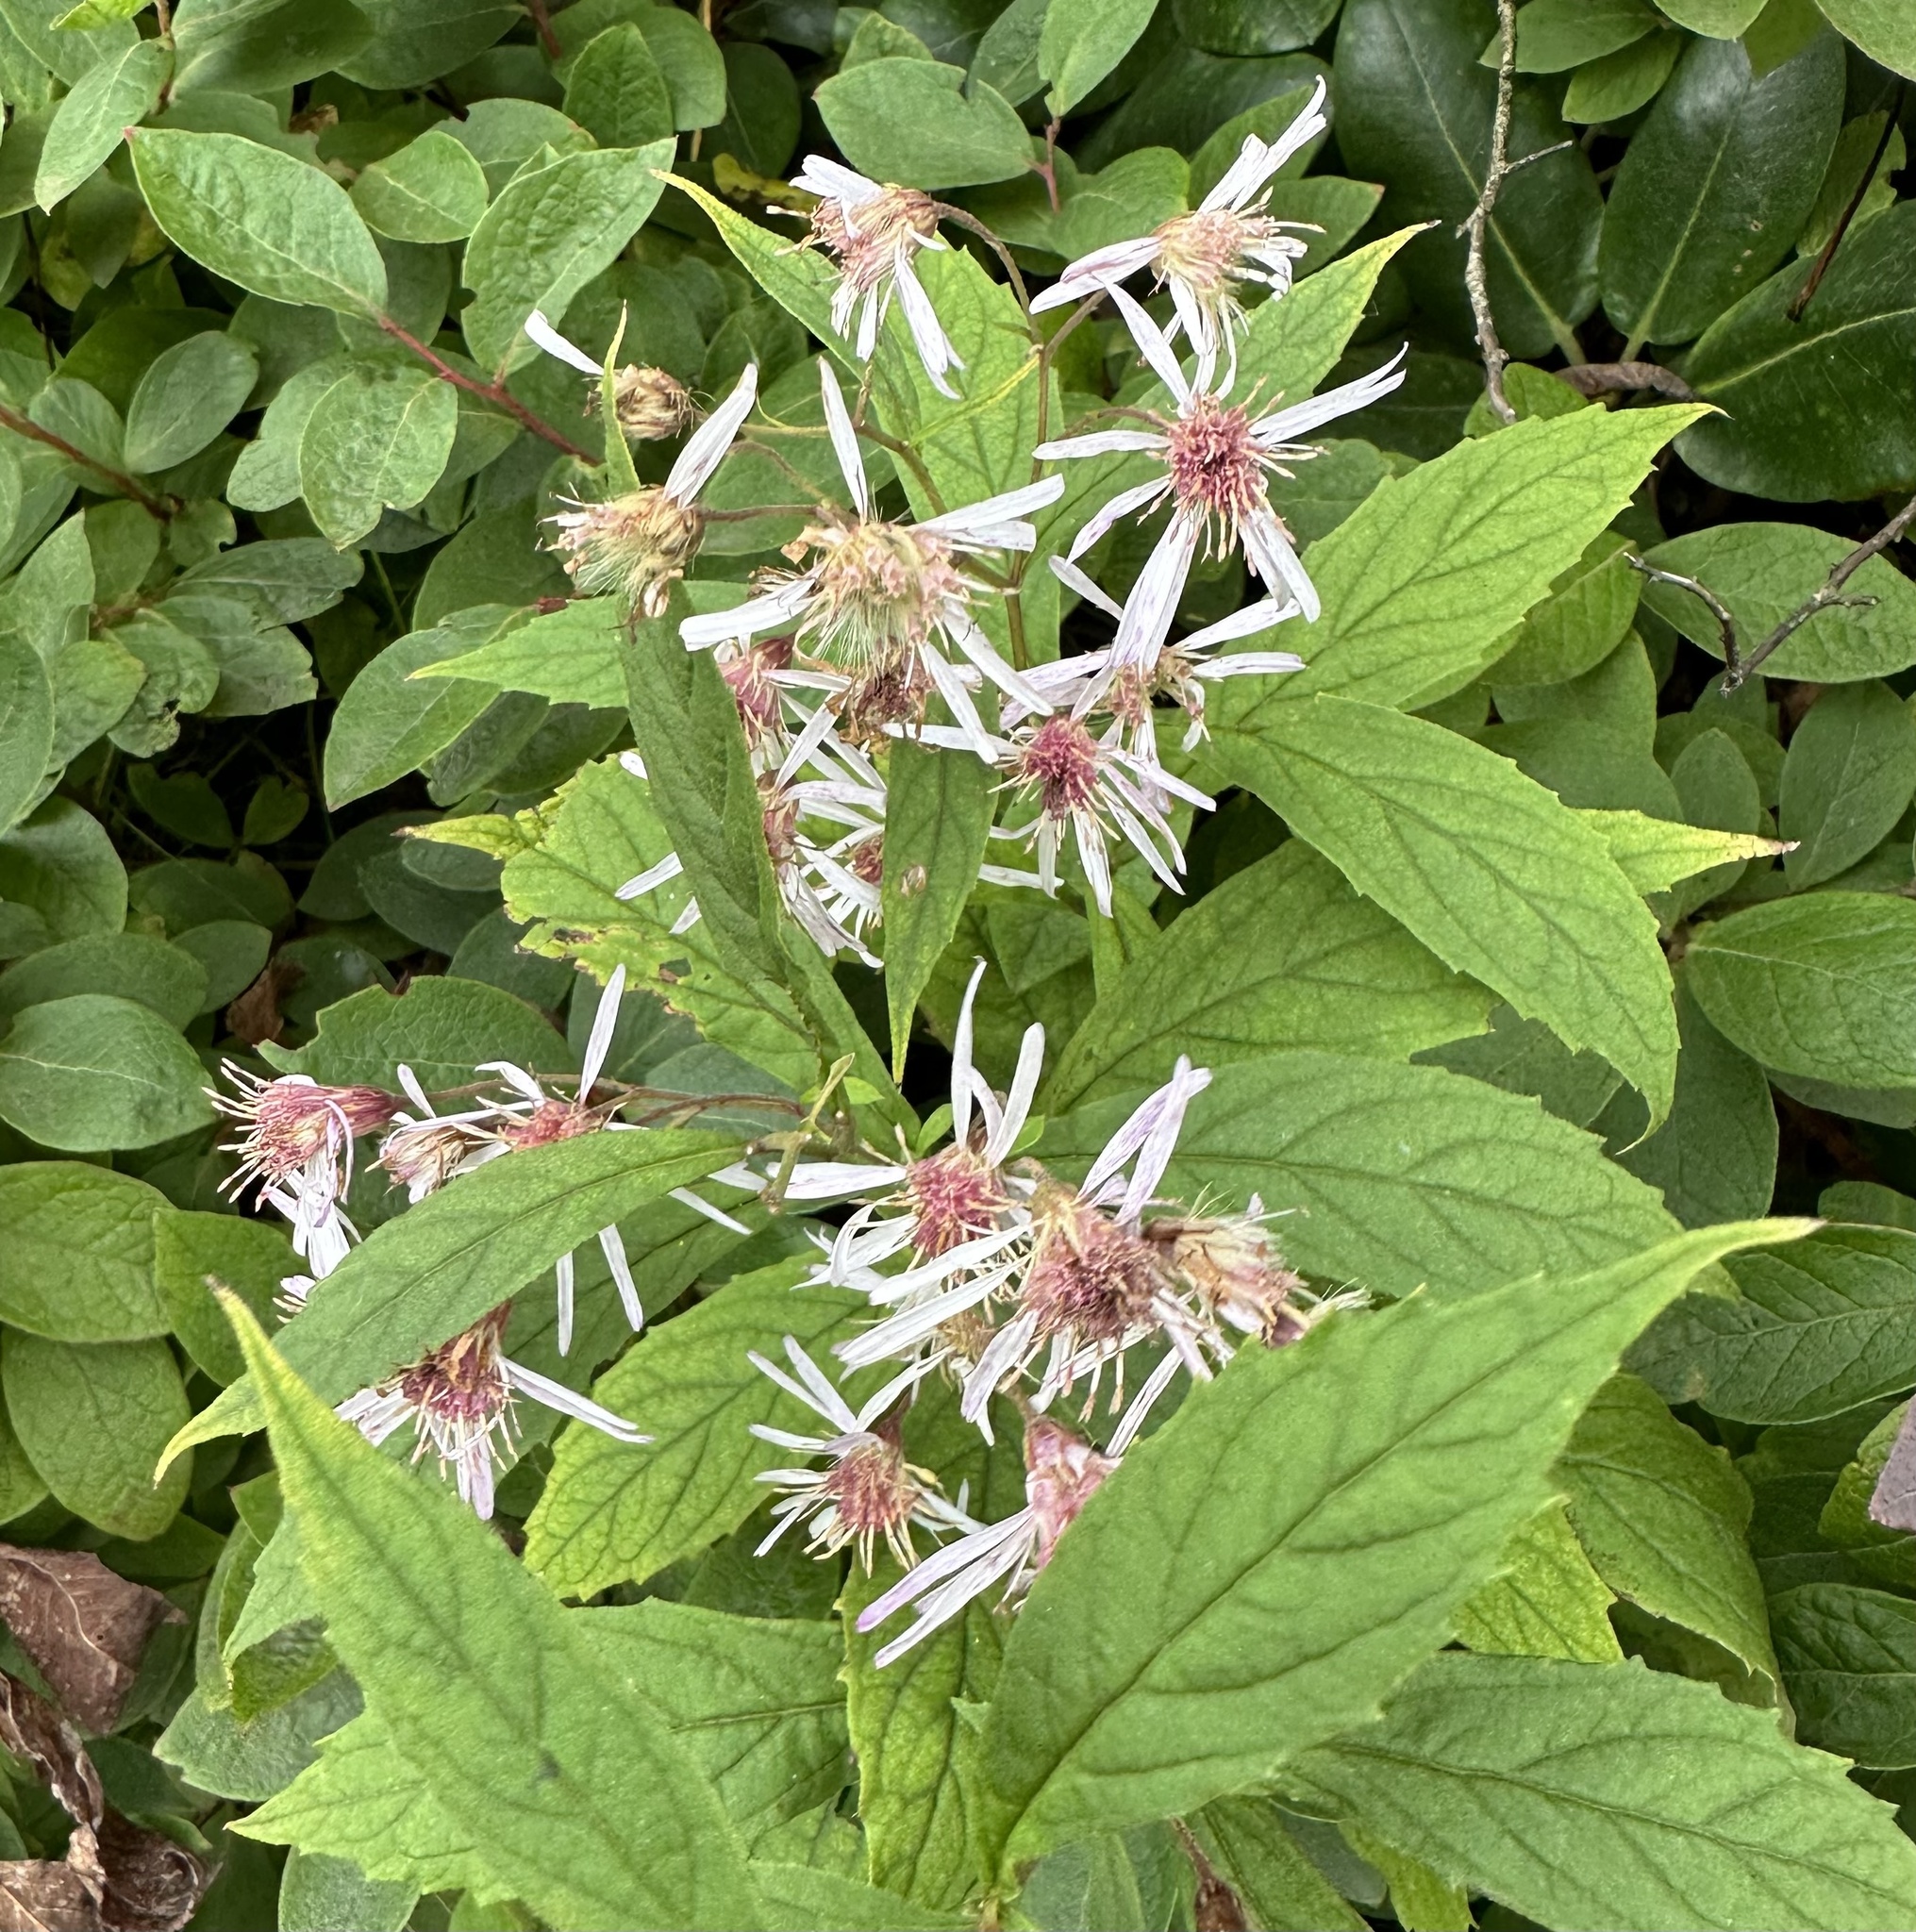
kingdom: Plantae
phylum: Tracheophyta
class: Magnoliopsida
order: Asterales
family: Asteraceae
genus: Oclemena
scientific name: Oclemena acuminata
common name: Mountain aster
